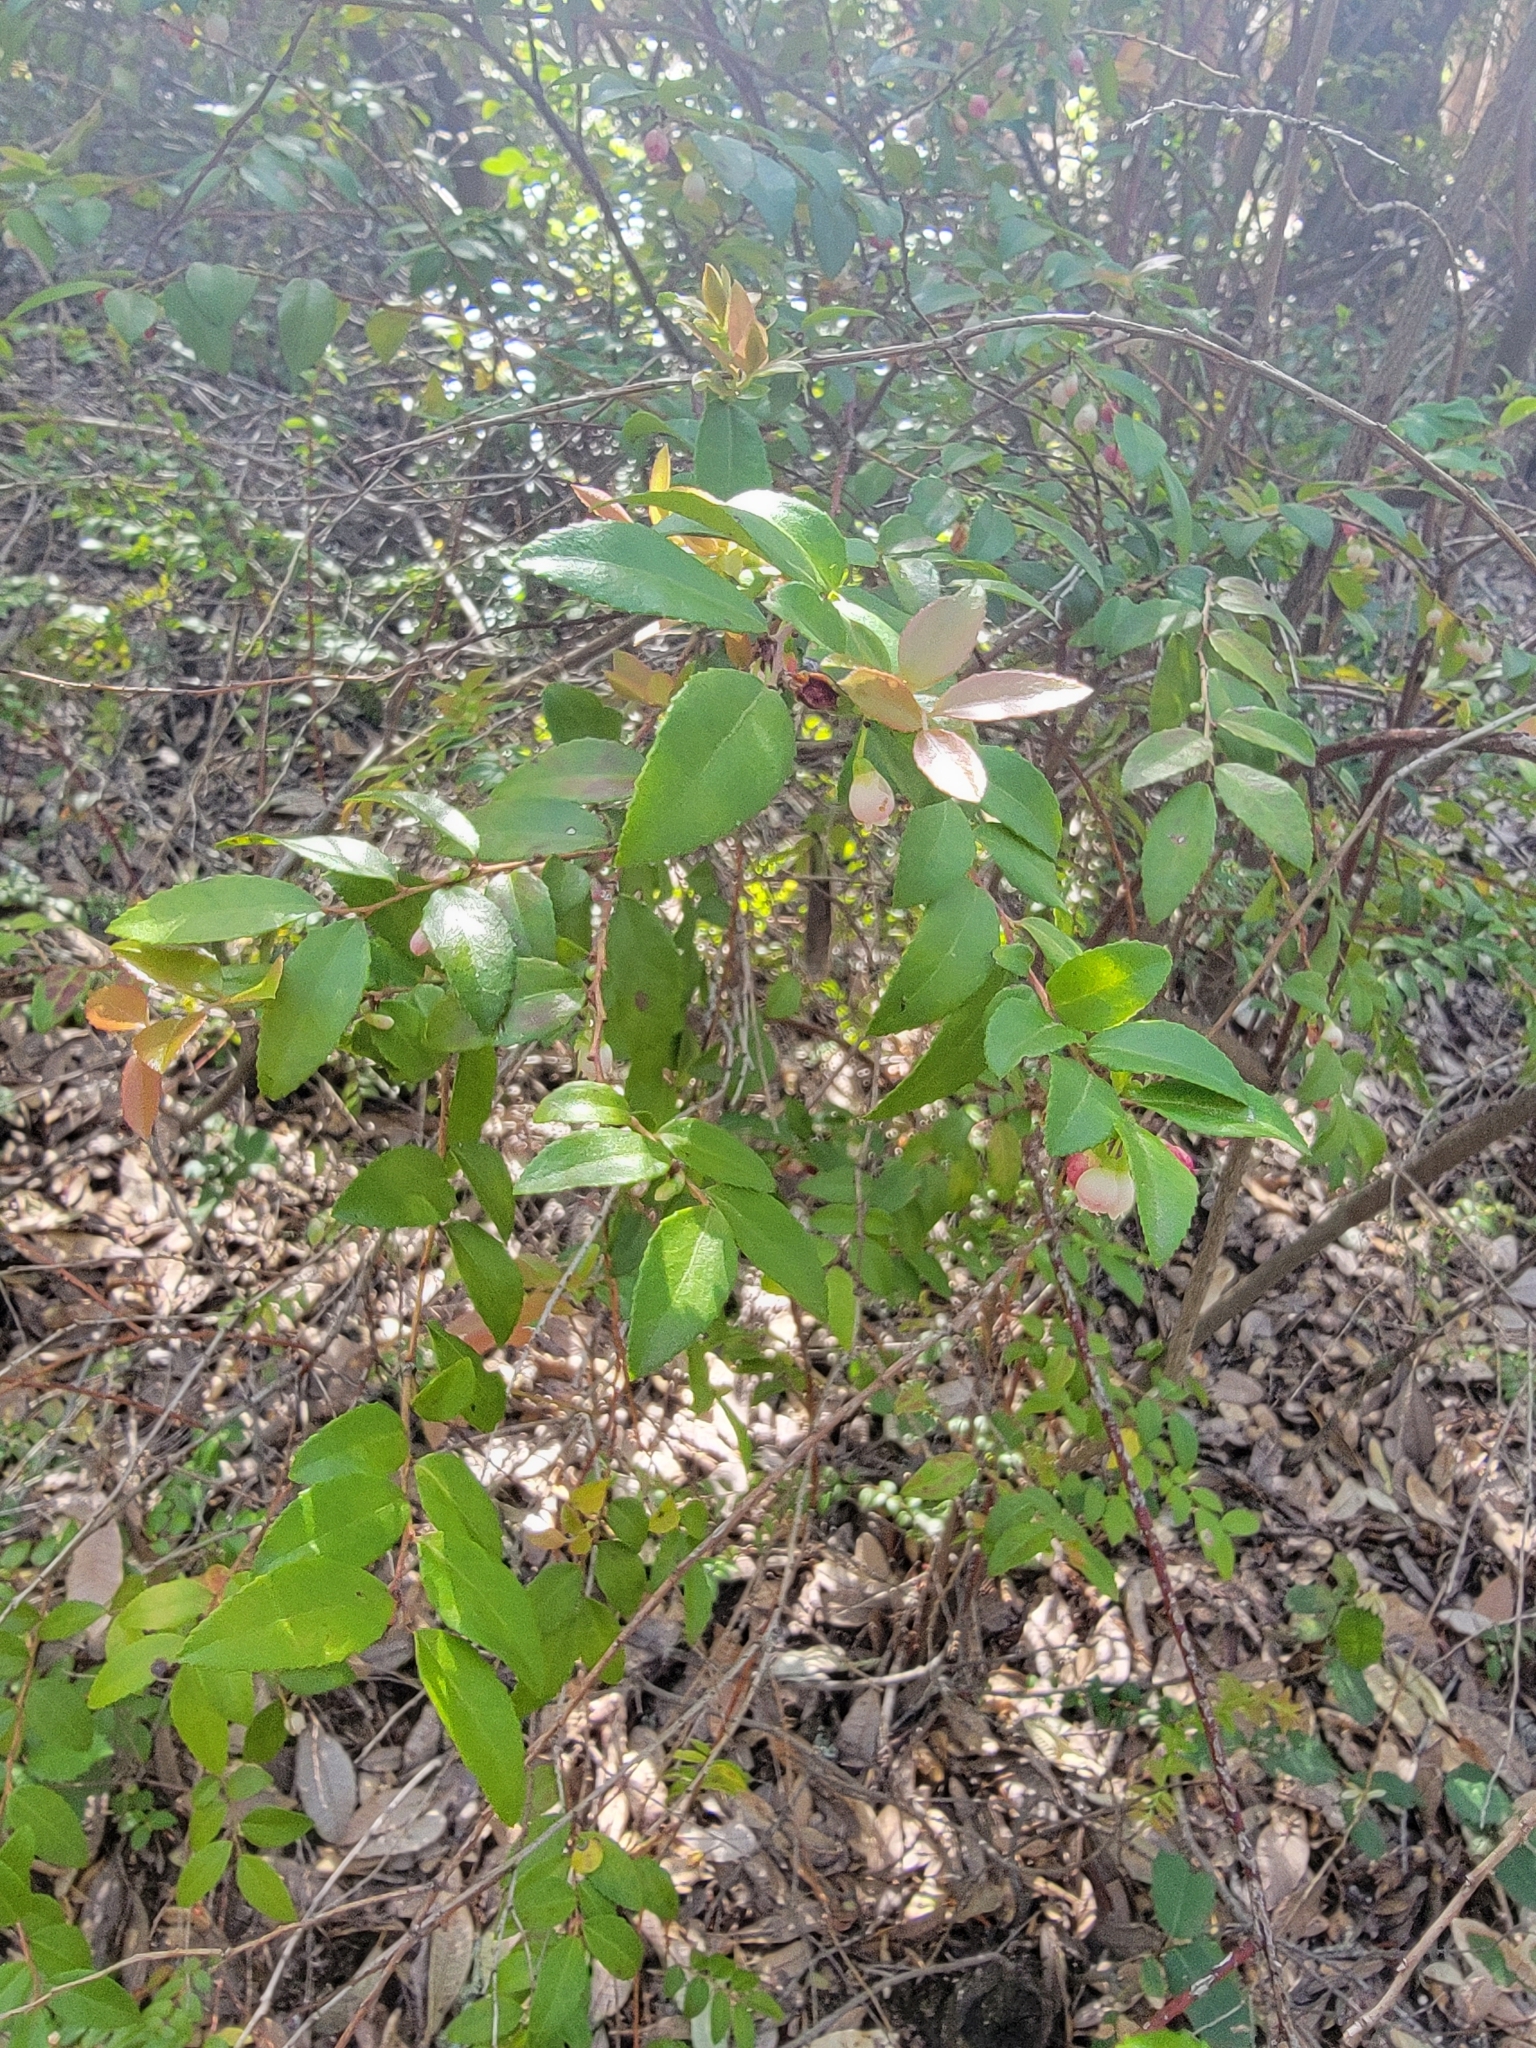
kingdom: Plantae
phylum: Tracheophyta
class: Magnoliopsida
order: Ericales
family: Ericaceae
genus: Vaccinium
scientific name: Vaccinium ovatum
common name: California-huckleberry
